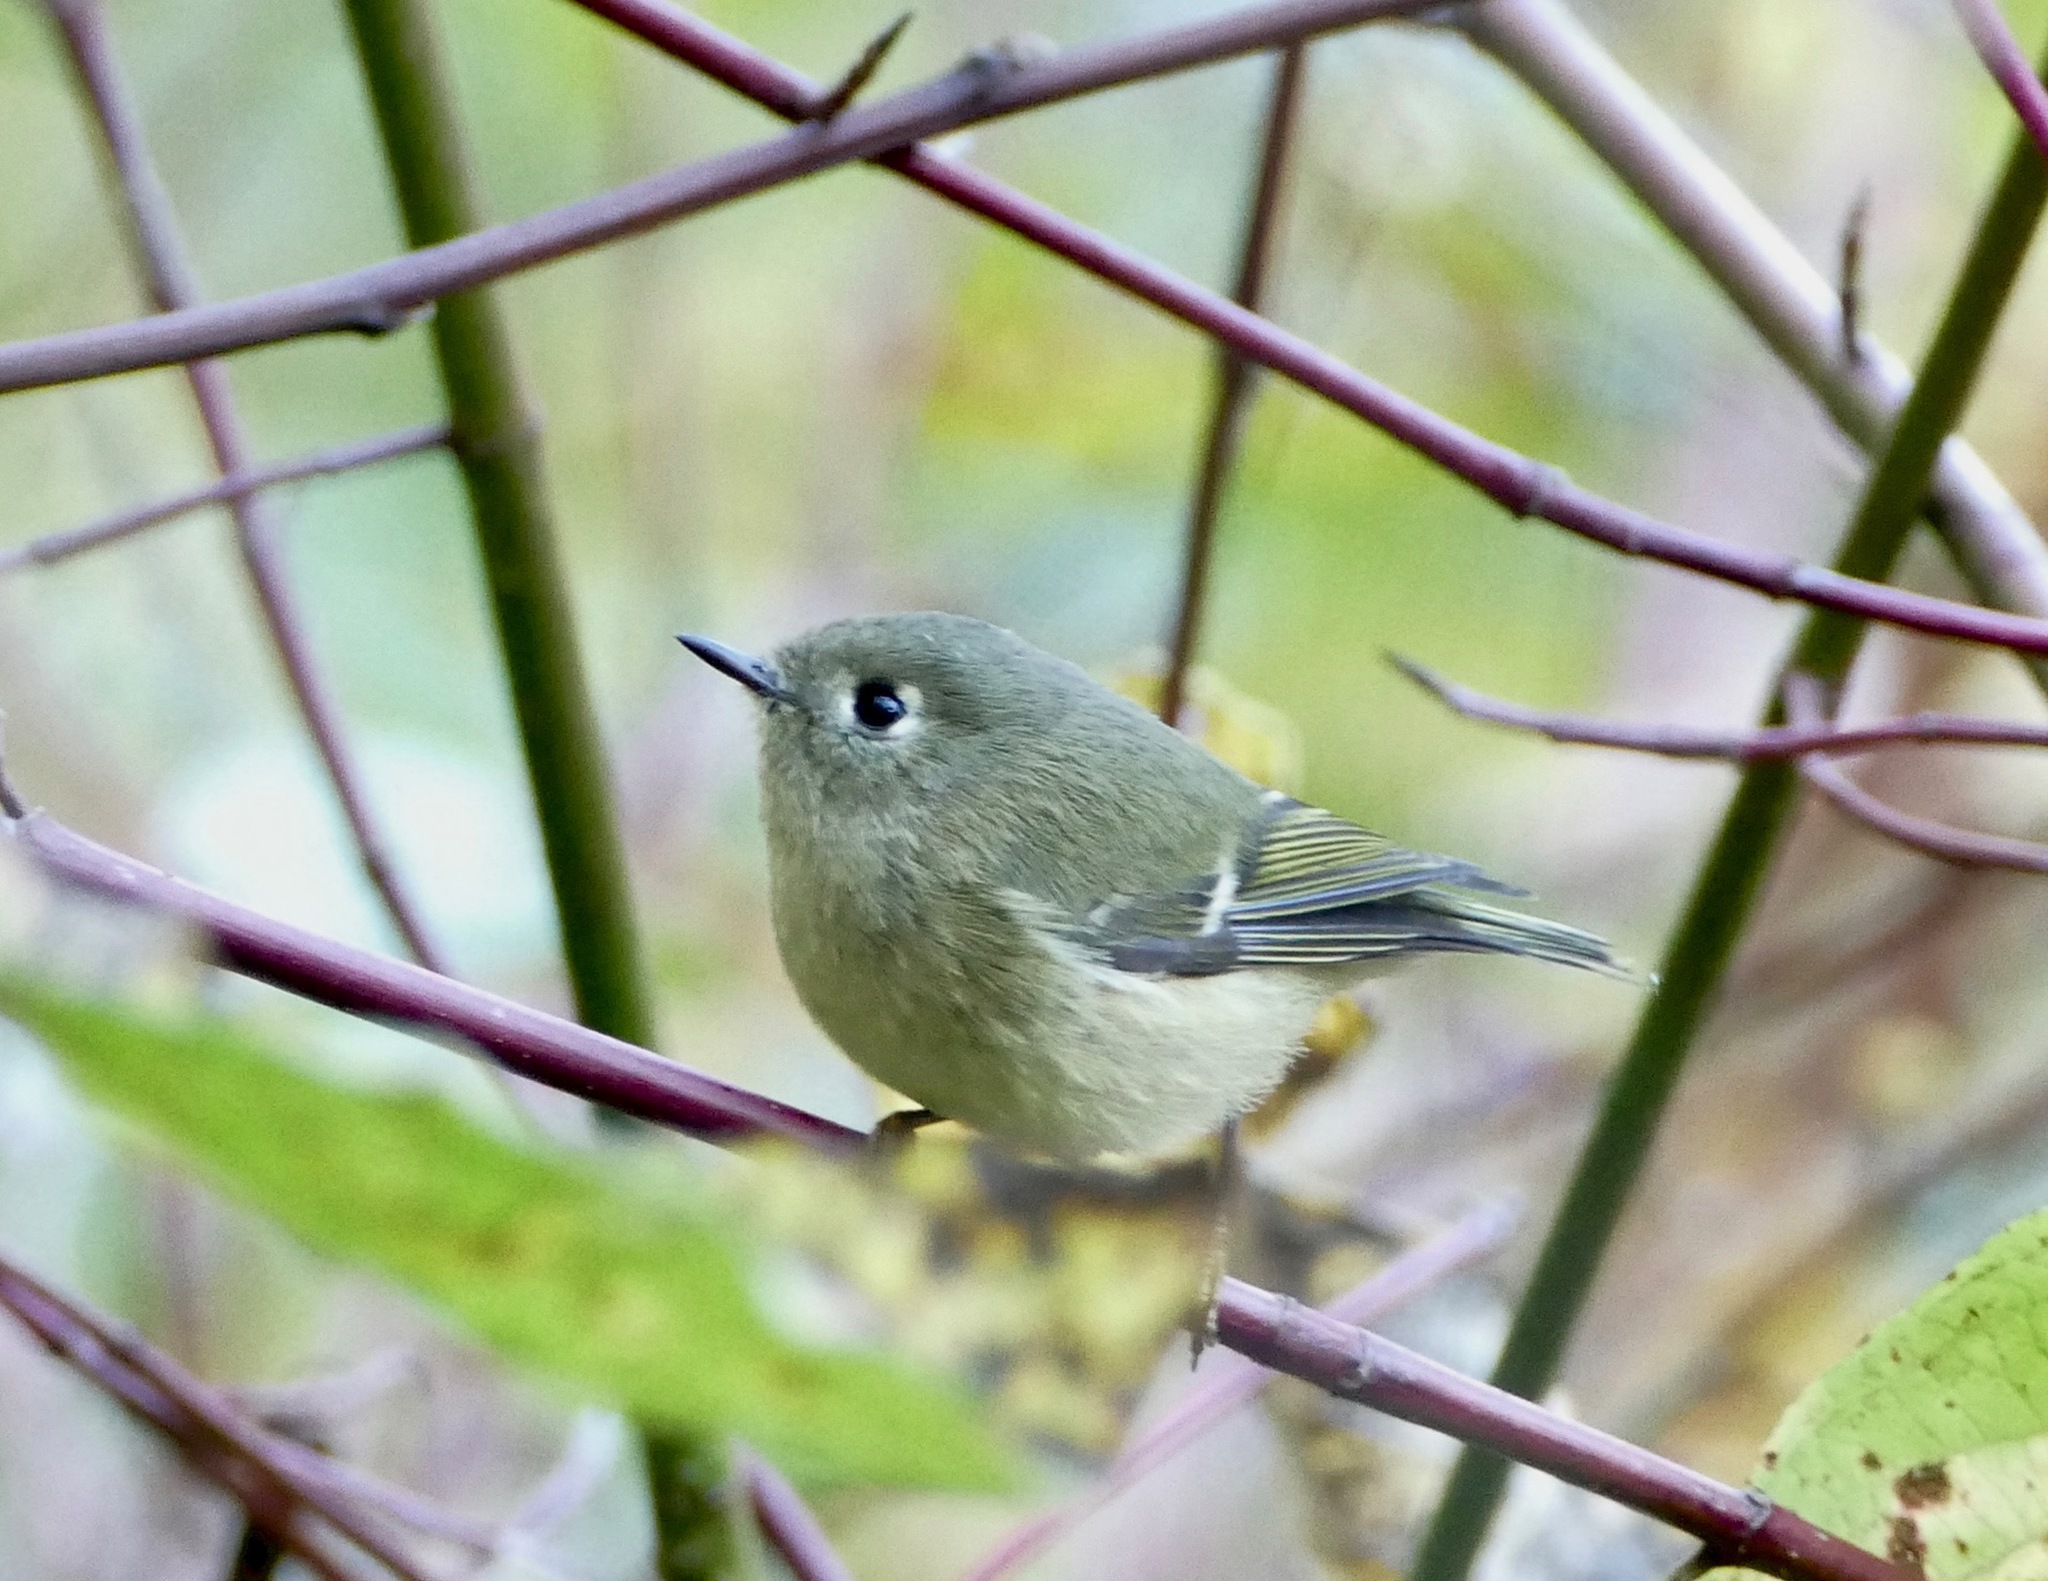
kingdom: Animalia
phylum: Chordata
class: Aves
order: Passeriformes
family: Regulidae
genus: Regulus
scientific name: Regulus calendula
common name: Ruby-crowned kinglet
